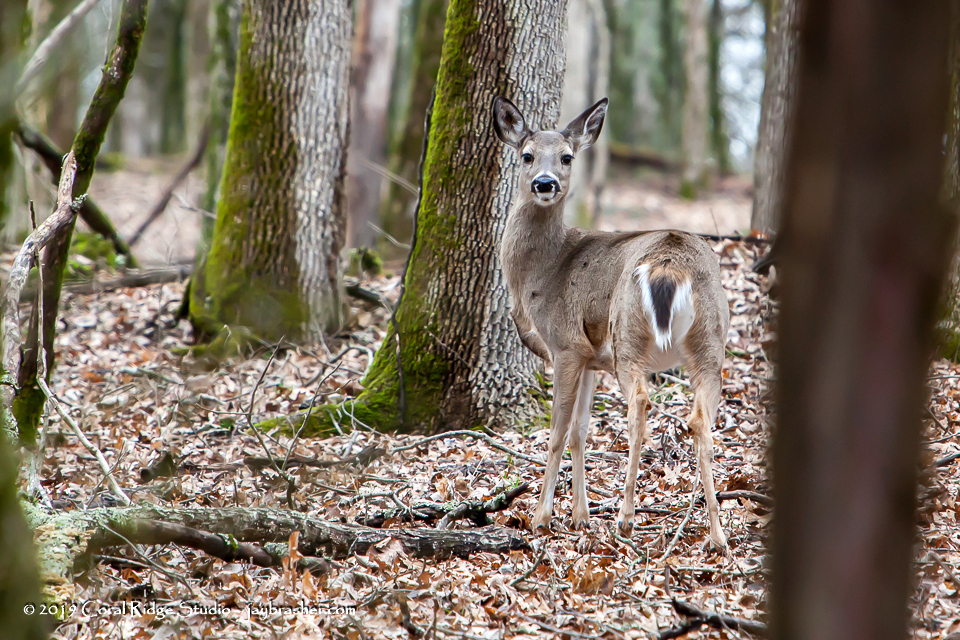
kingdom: Animalia
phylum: Chordata
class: Mammalia
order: Artiodactyla
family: Cervidae
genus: Odocoileus
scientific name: Odocoileus virginianus
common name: White-tailed deer
